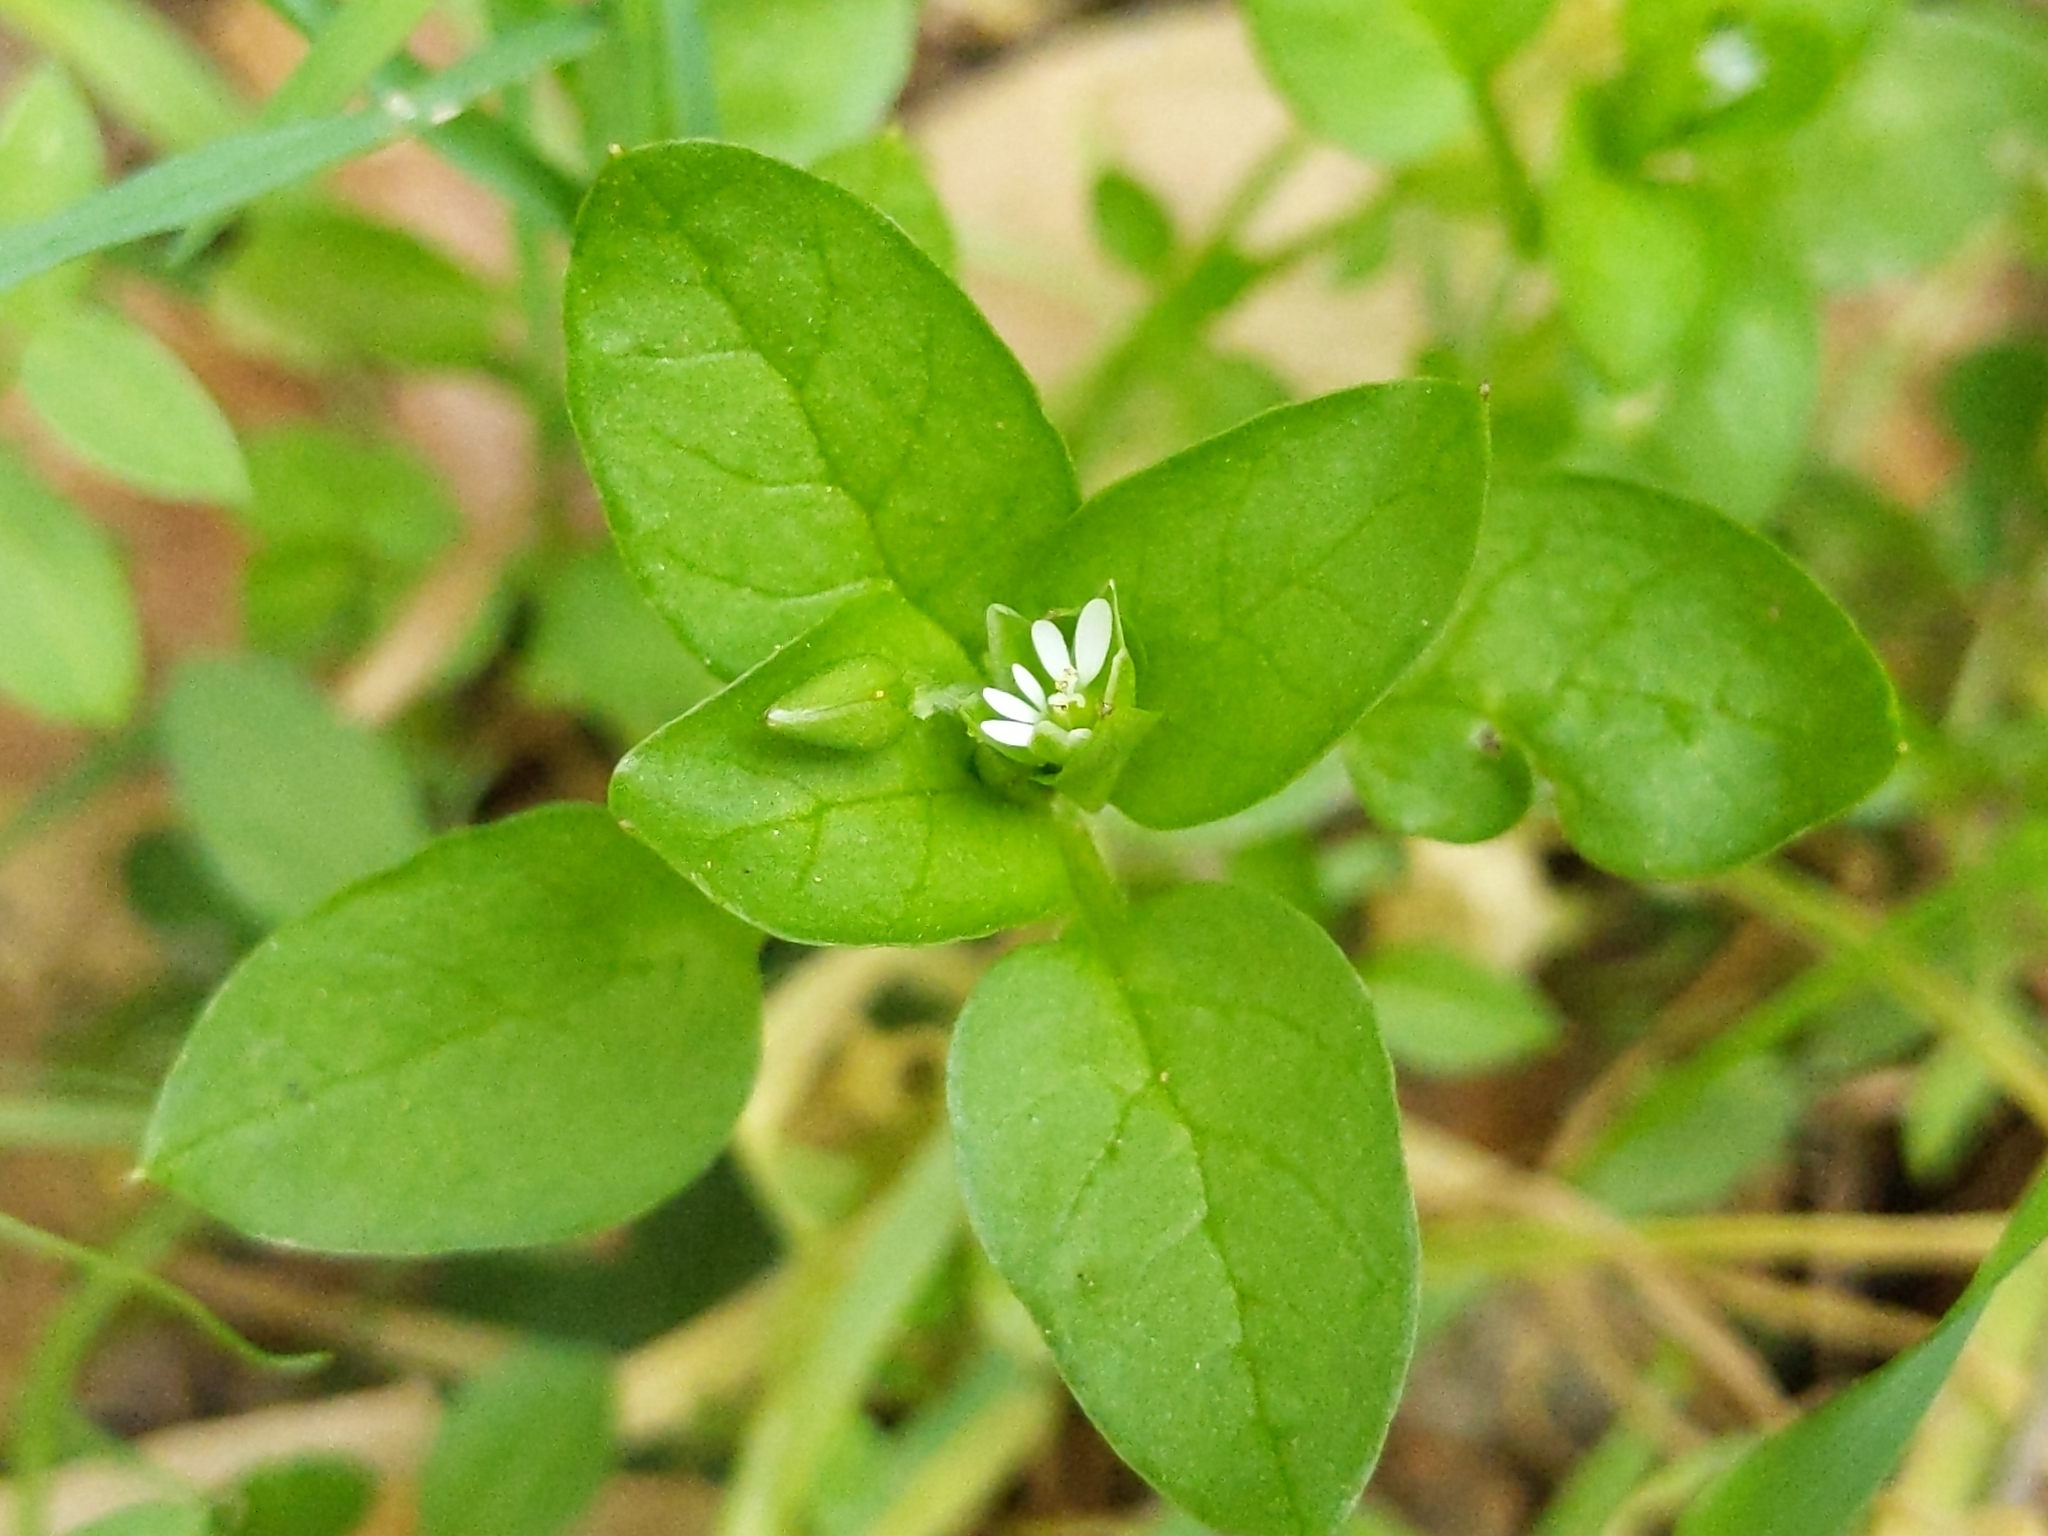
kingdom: Plantae
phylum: Tracheophyta
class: Magnoliopsida
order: Caryophyllales
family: Caryophyllaceae
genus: Stellaria
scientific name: Stellaria media
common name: Common chickweed
